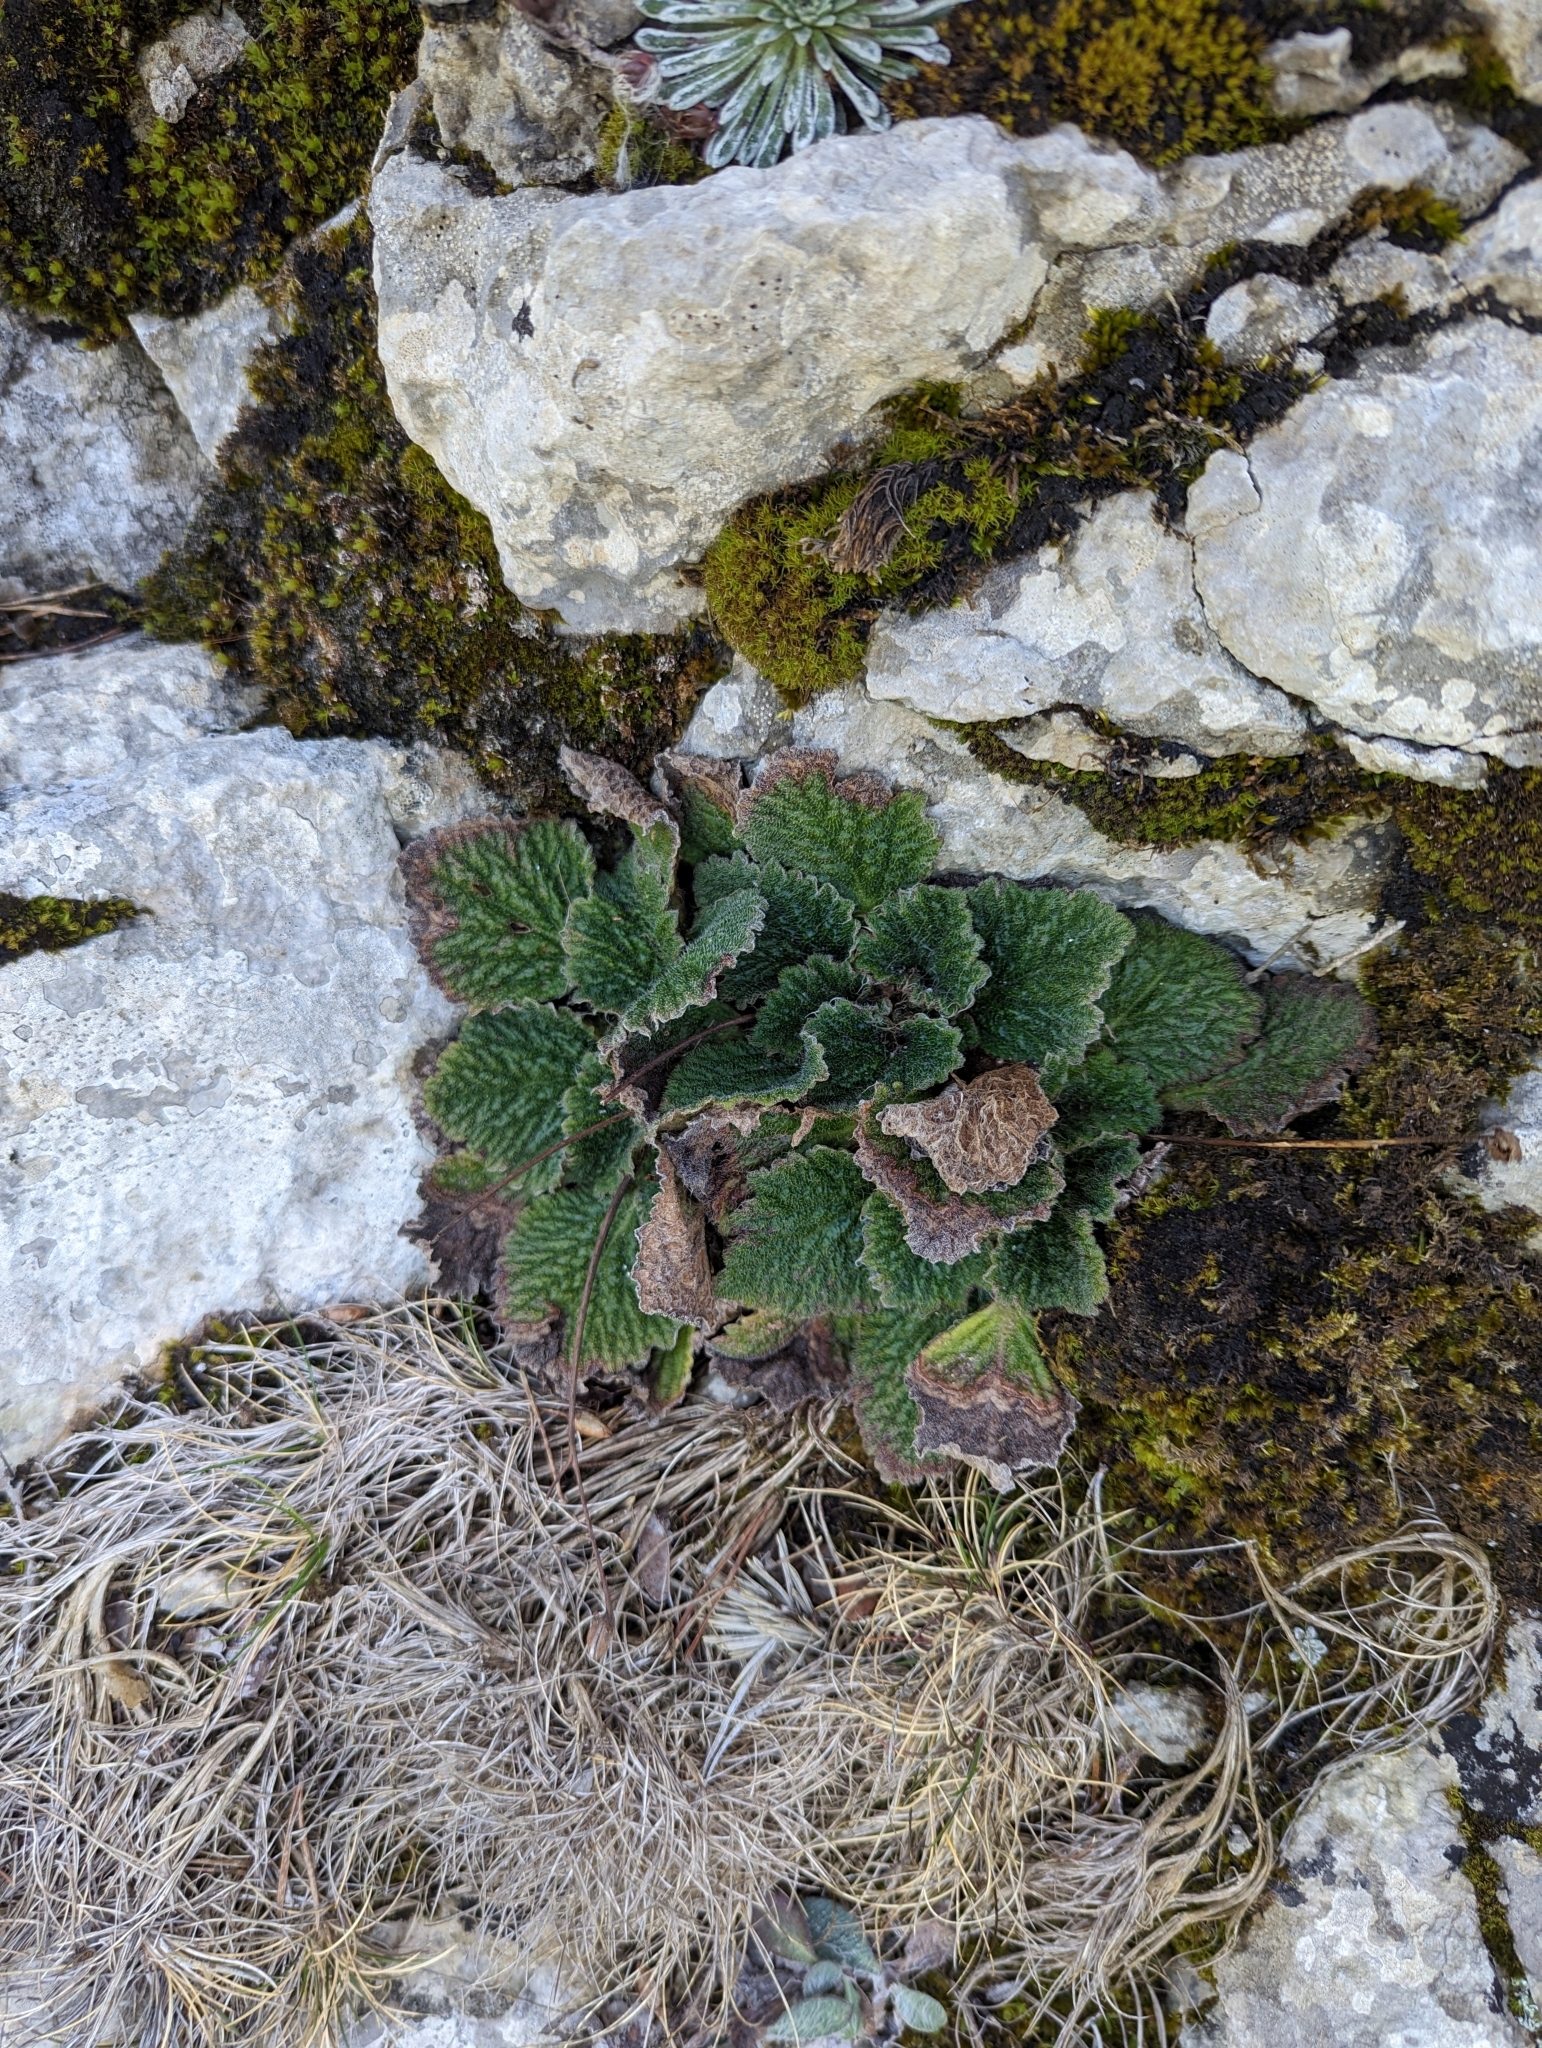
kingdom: Plantae
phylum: Tracheophyta
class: Magnoliopsida
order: Lamiales
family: Gesneriaceae
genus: Ramonda
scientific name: Ramonda myconi
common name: Pyrenean-violet
